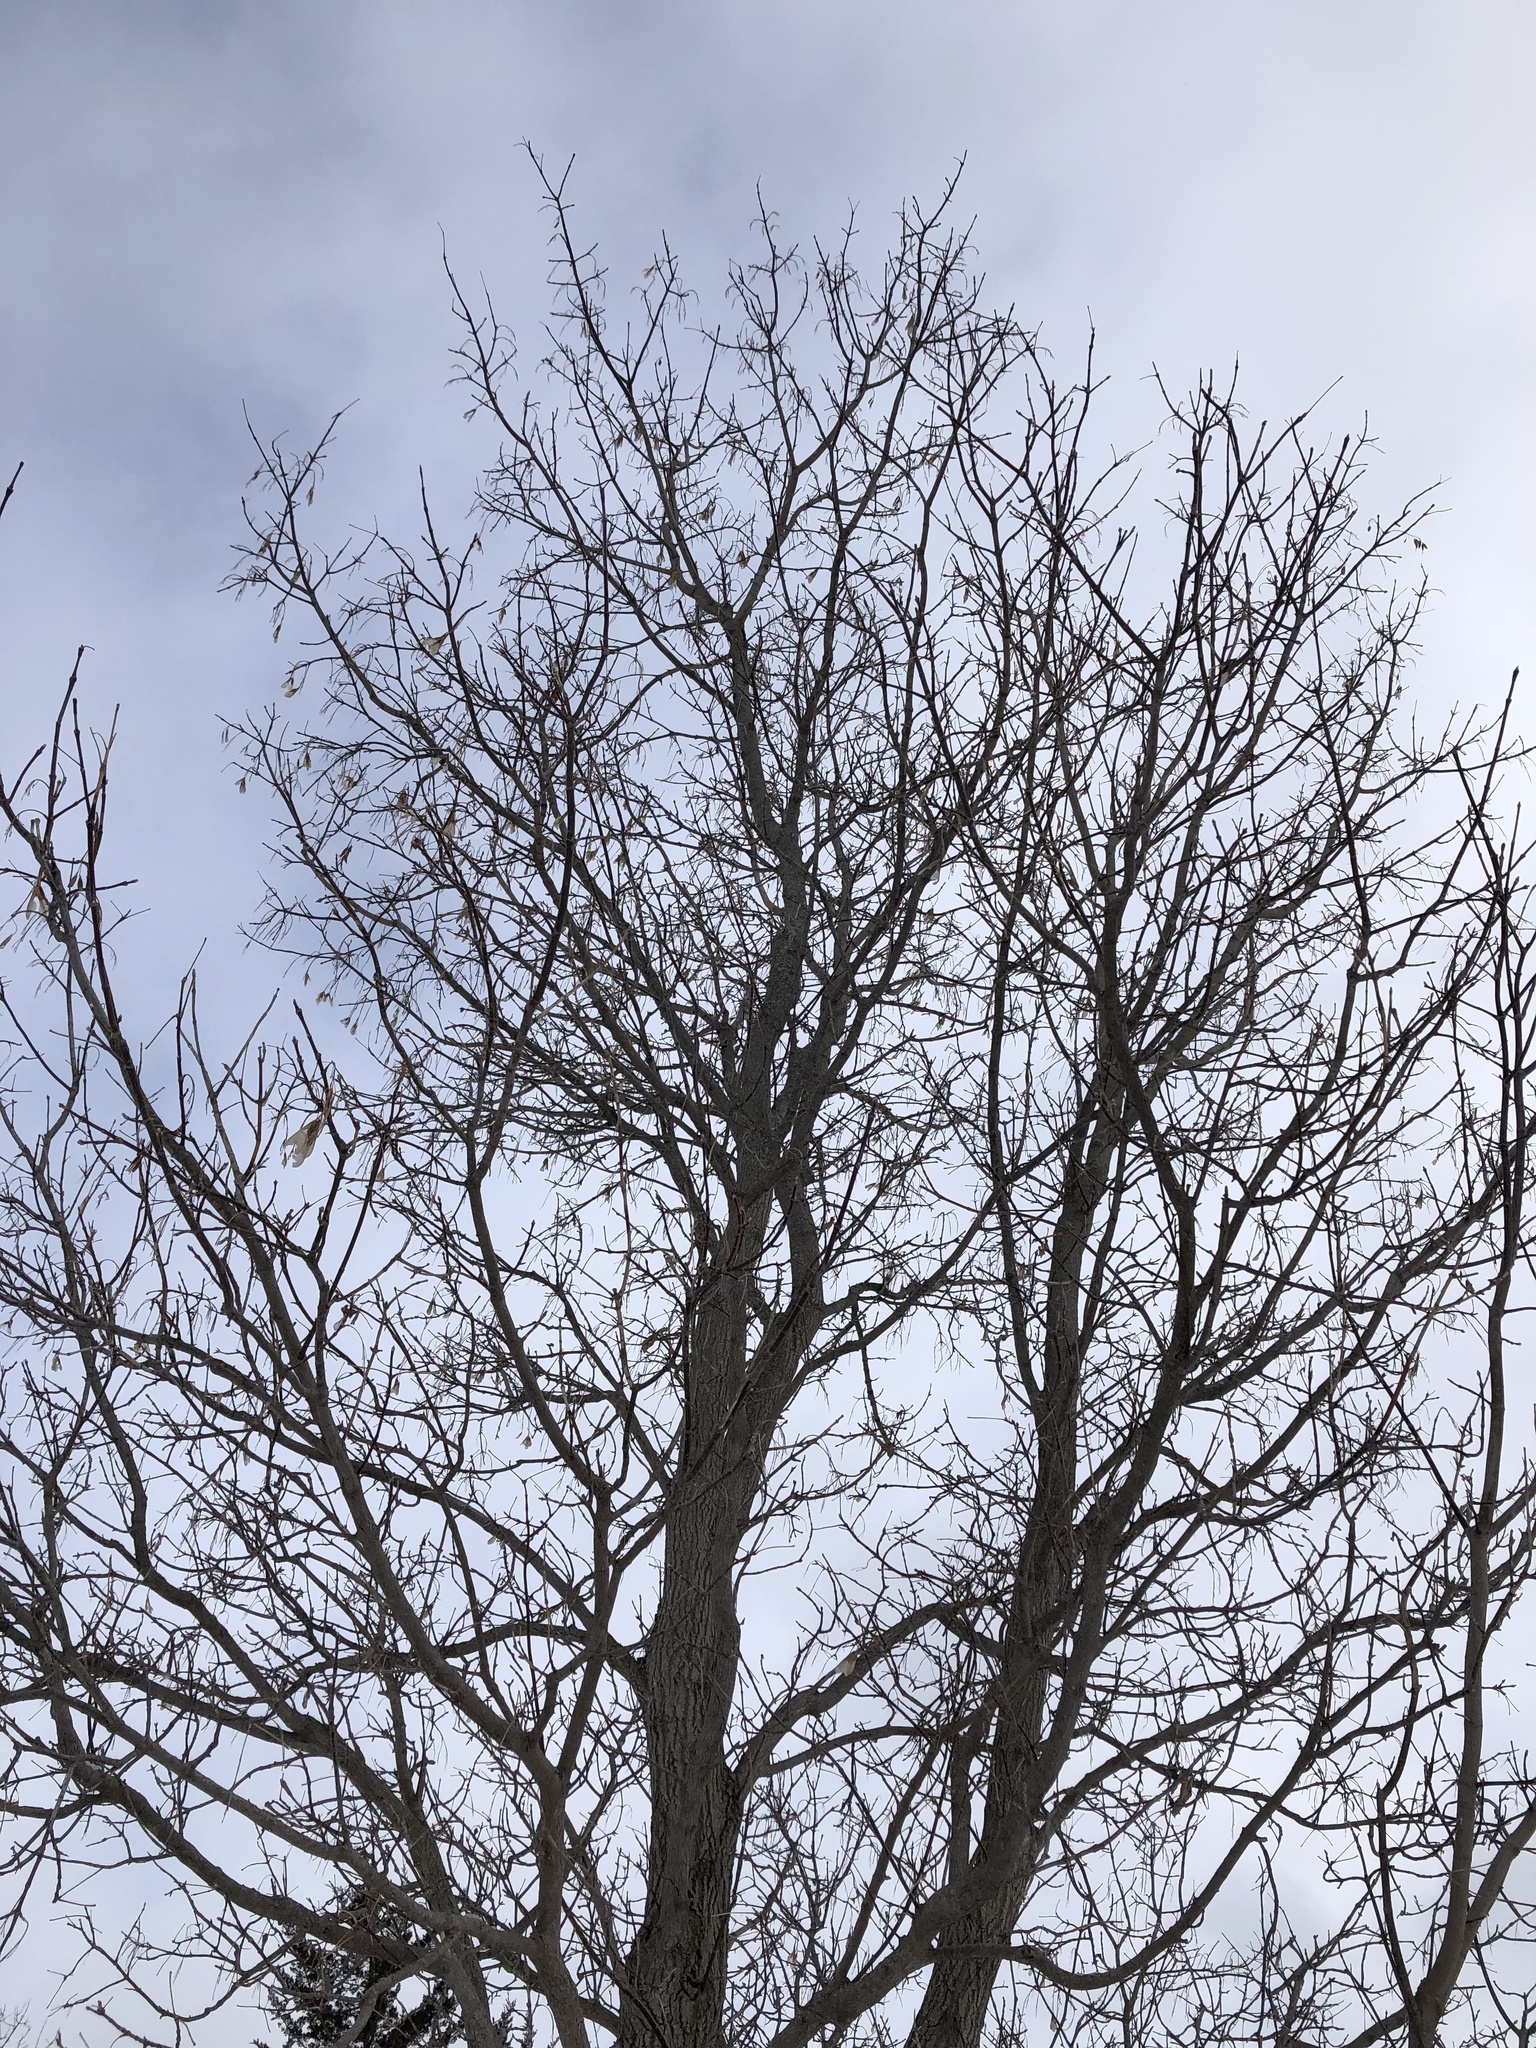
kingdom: Plantae
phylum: Tracheophyta
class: Magnoliopsida
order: Sapindales
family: Sapindaceae
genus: Acer
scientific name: Acer negundo
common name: Ashleaf maple
